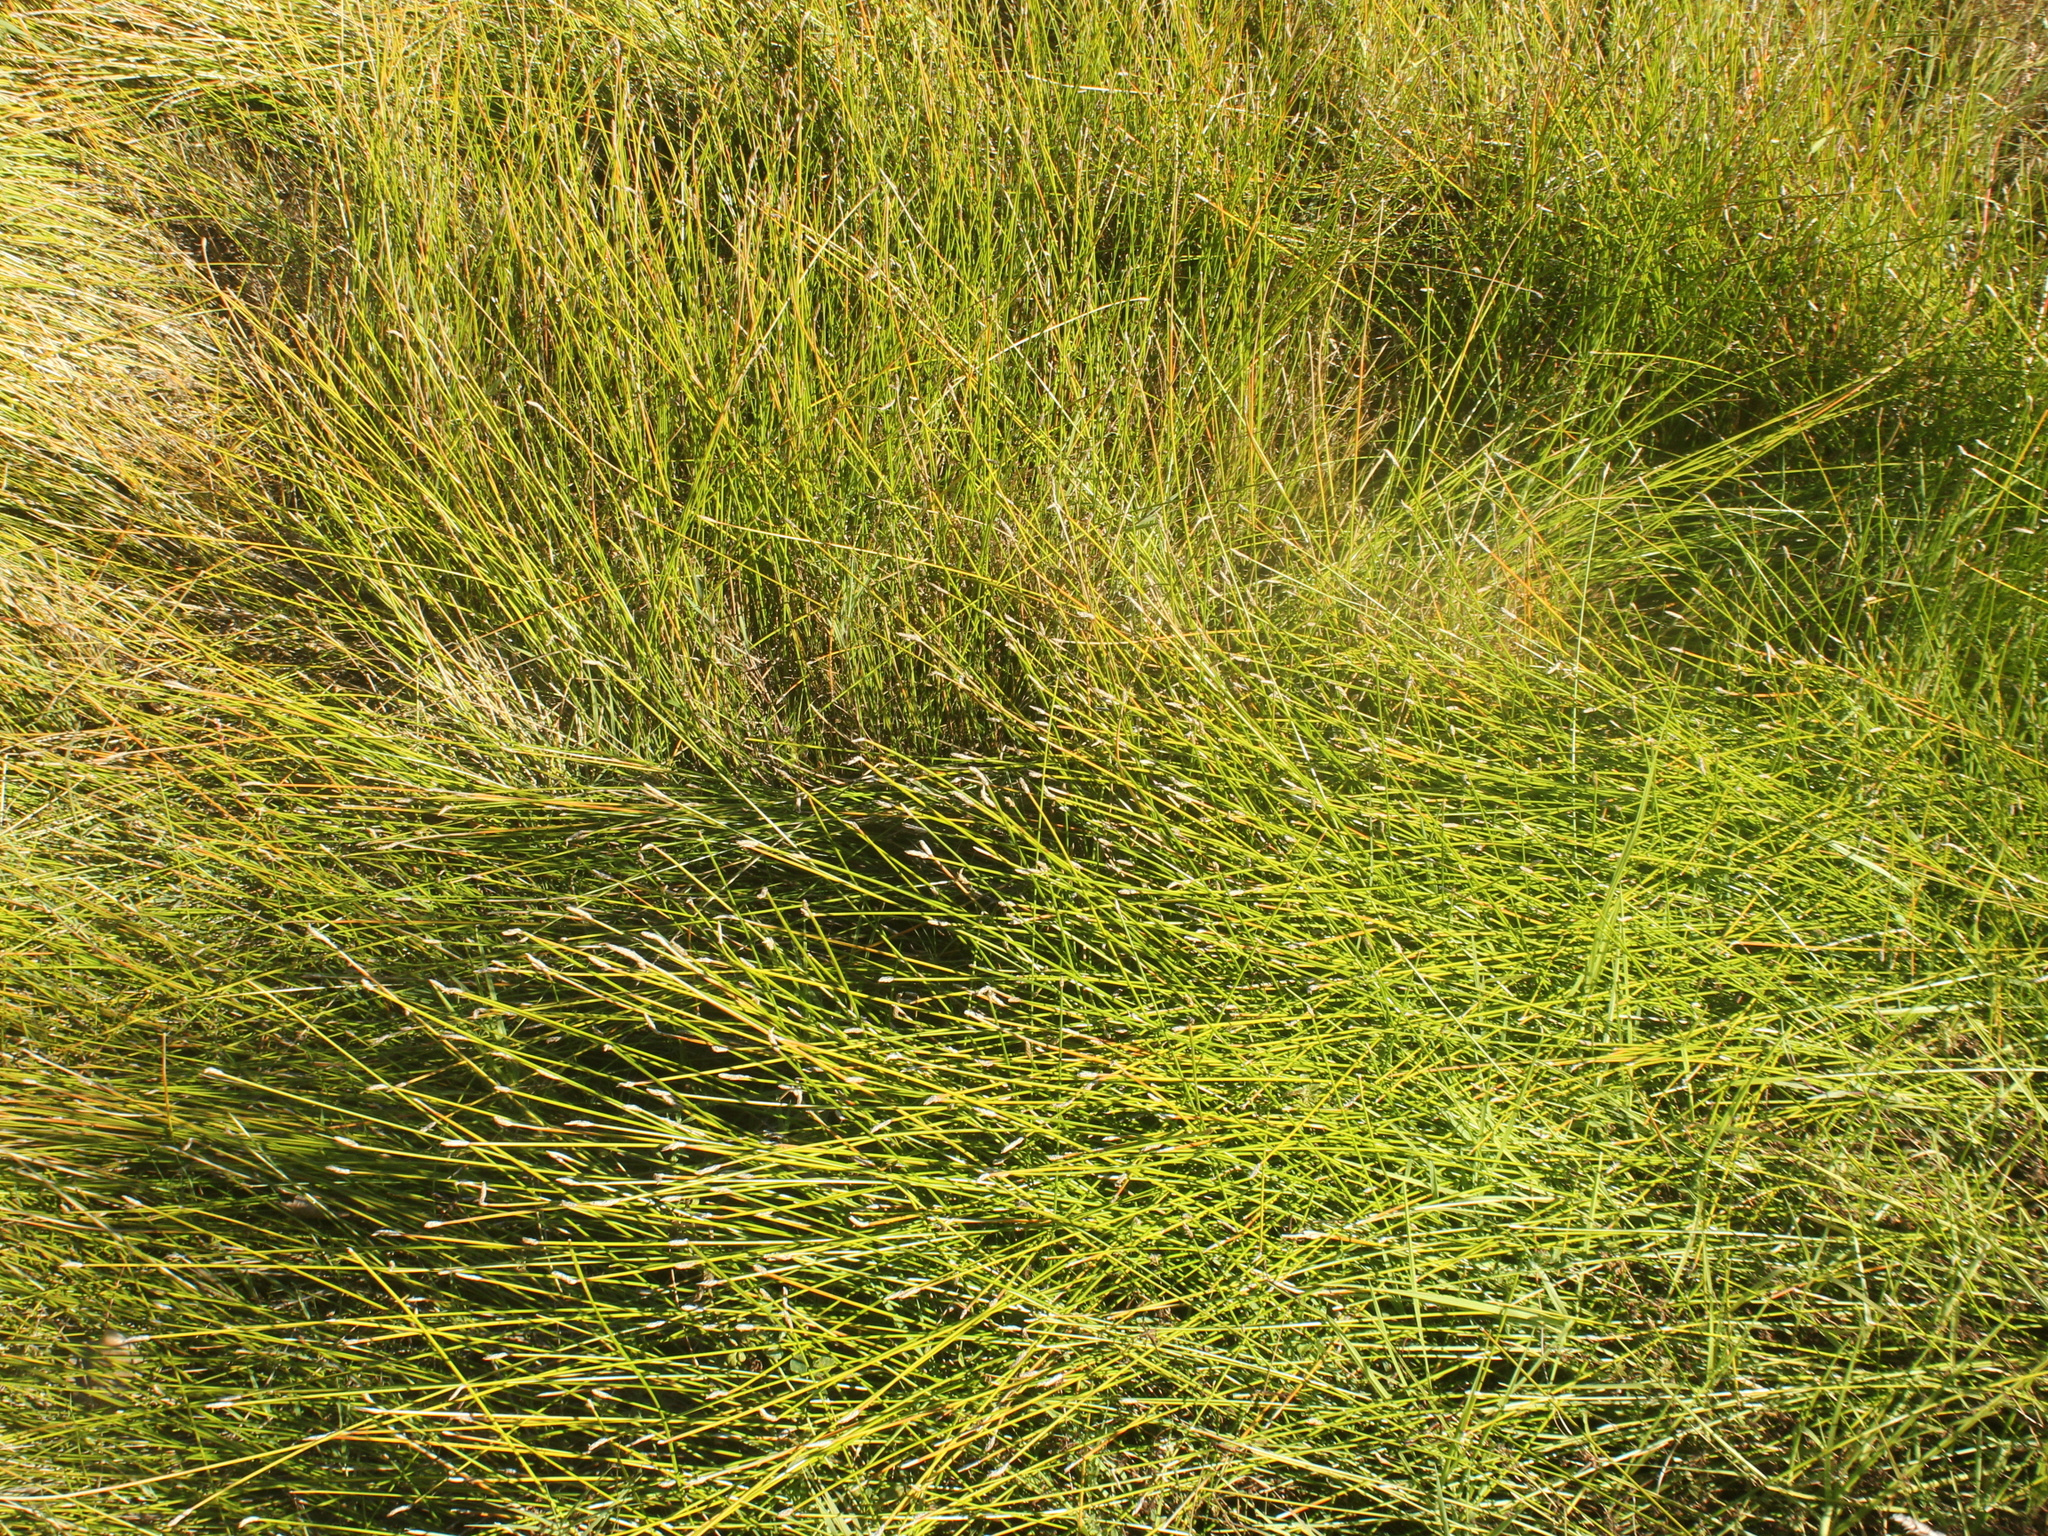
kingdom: Plantae
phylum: Tracheophyta
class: Liliopsida
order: Poales
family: Restionaceae
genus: Empodisma
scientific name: Empodisma minus
